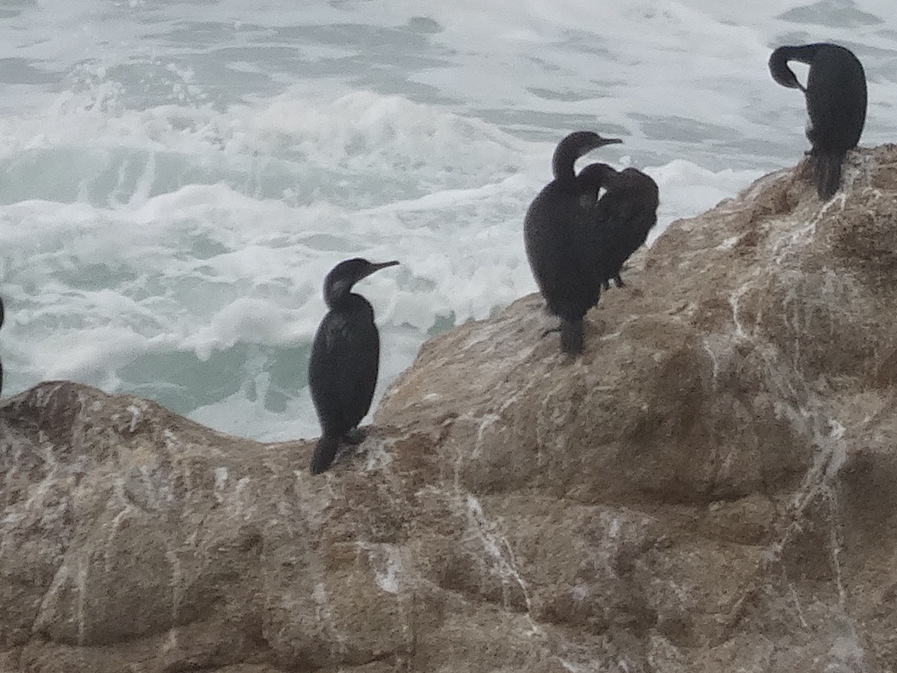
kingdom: Animalia
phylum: Chordata
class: Aves
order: Suliformes
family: Phalacrocoracidae
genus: Urile
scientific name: Urile penicillatus
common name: Brandt's cormorant
